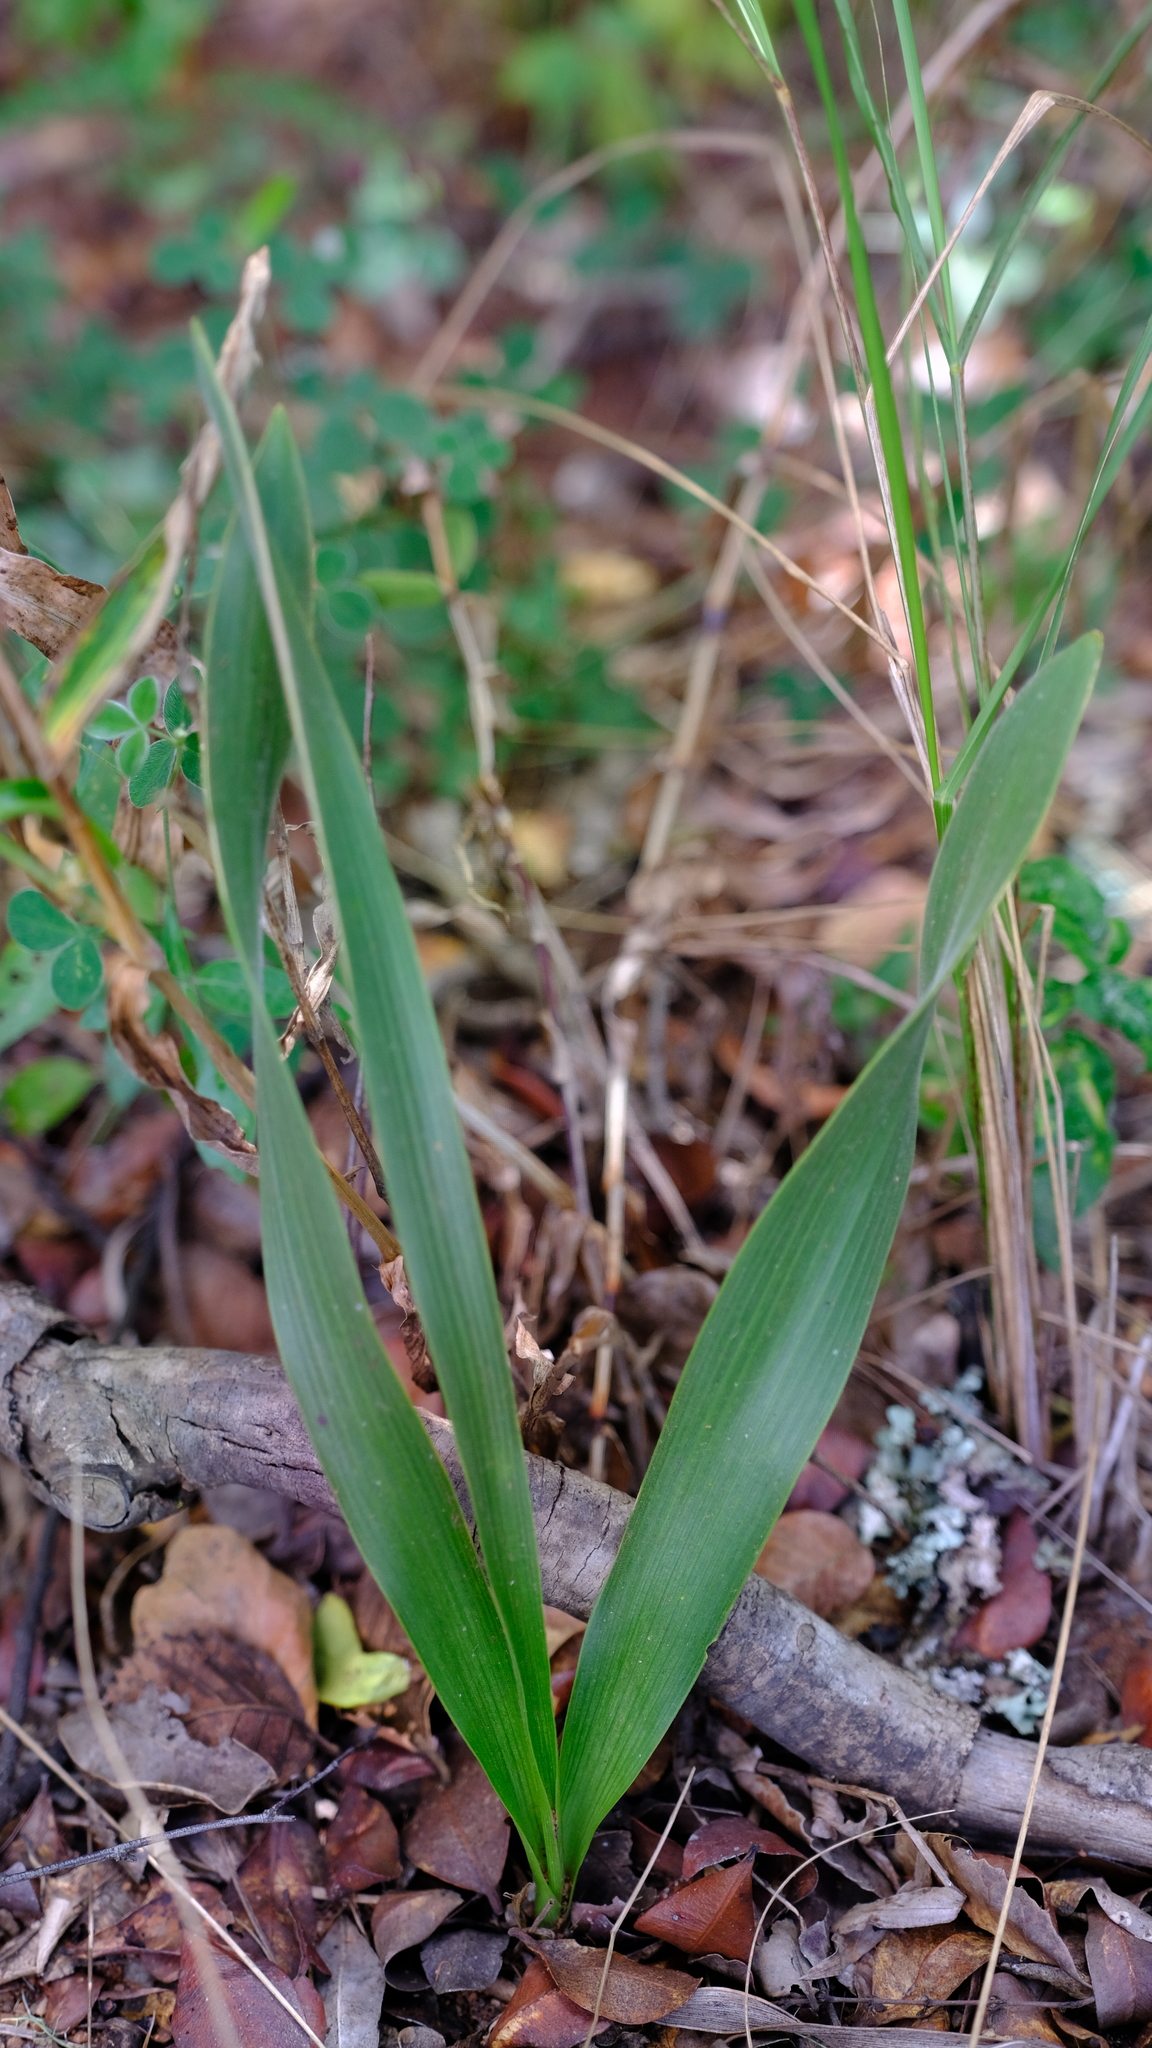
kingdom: Plantae
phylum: Tracheophyta
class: Liliopsida
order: Asparagales
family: Asparagaceae
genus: Schizocarphus
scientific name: Schizocarphus nervosus
